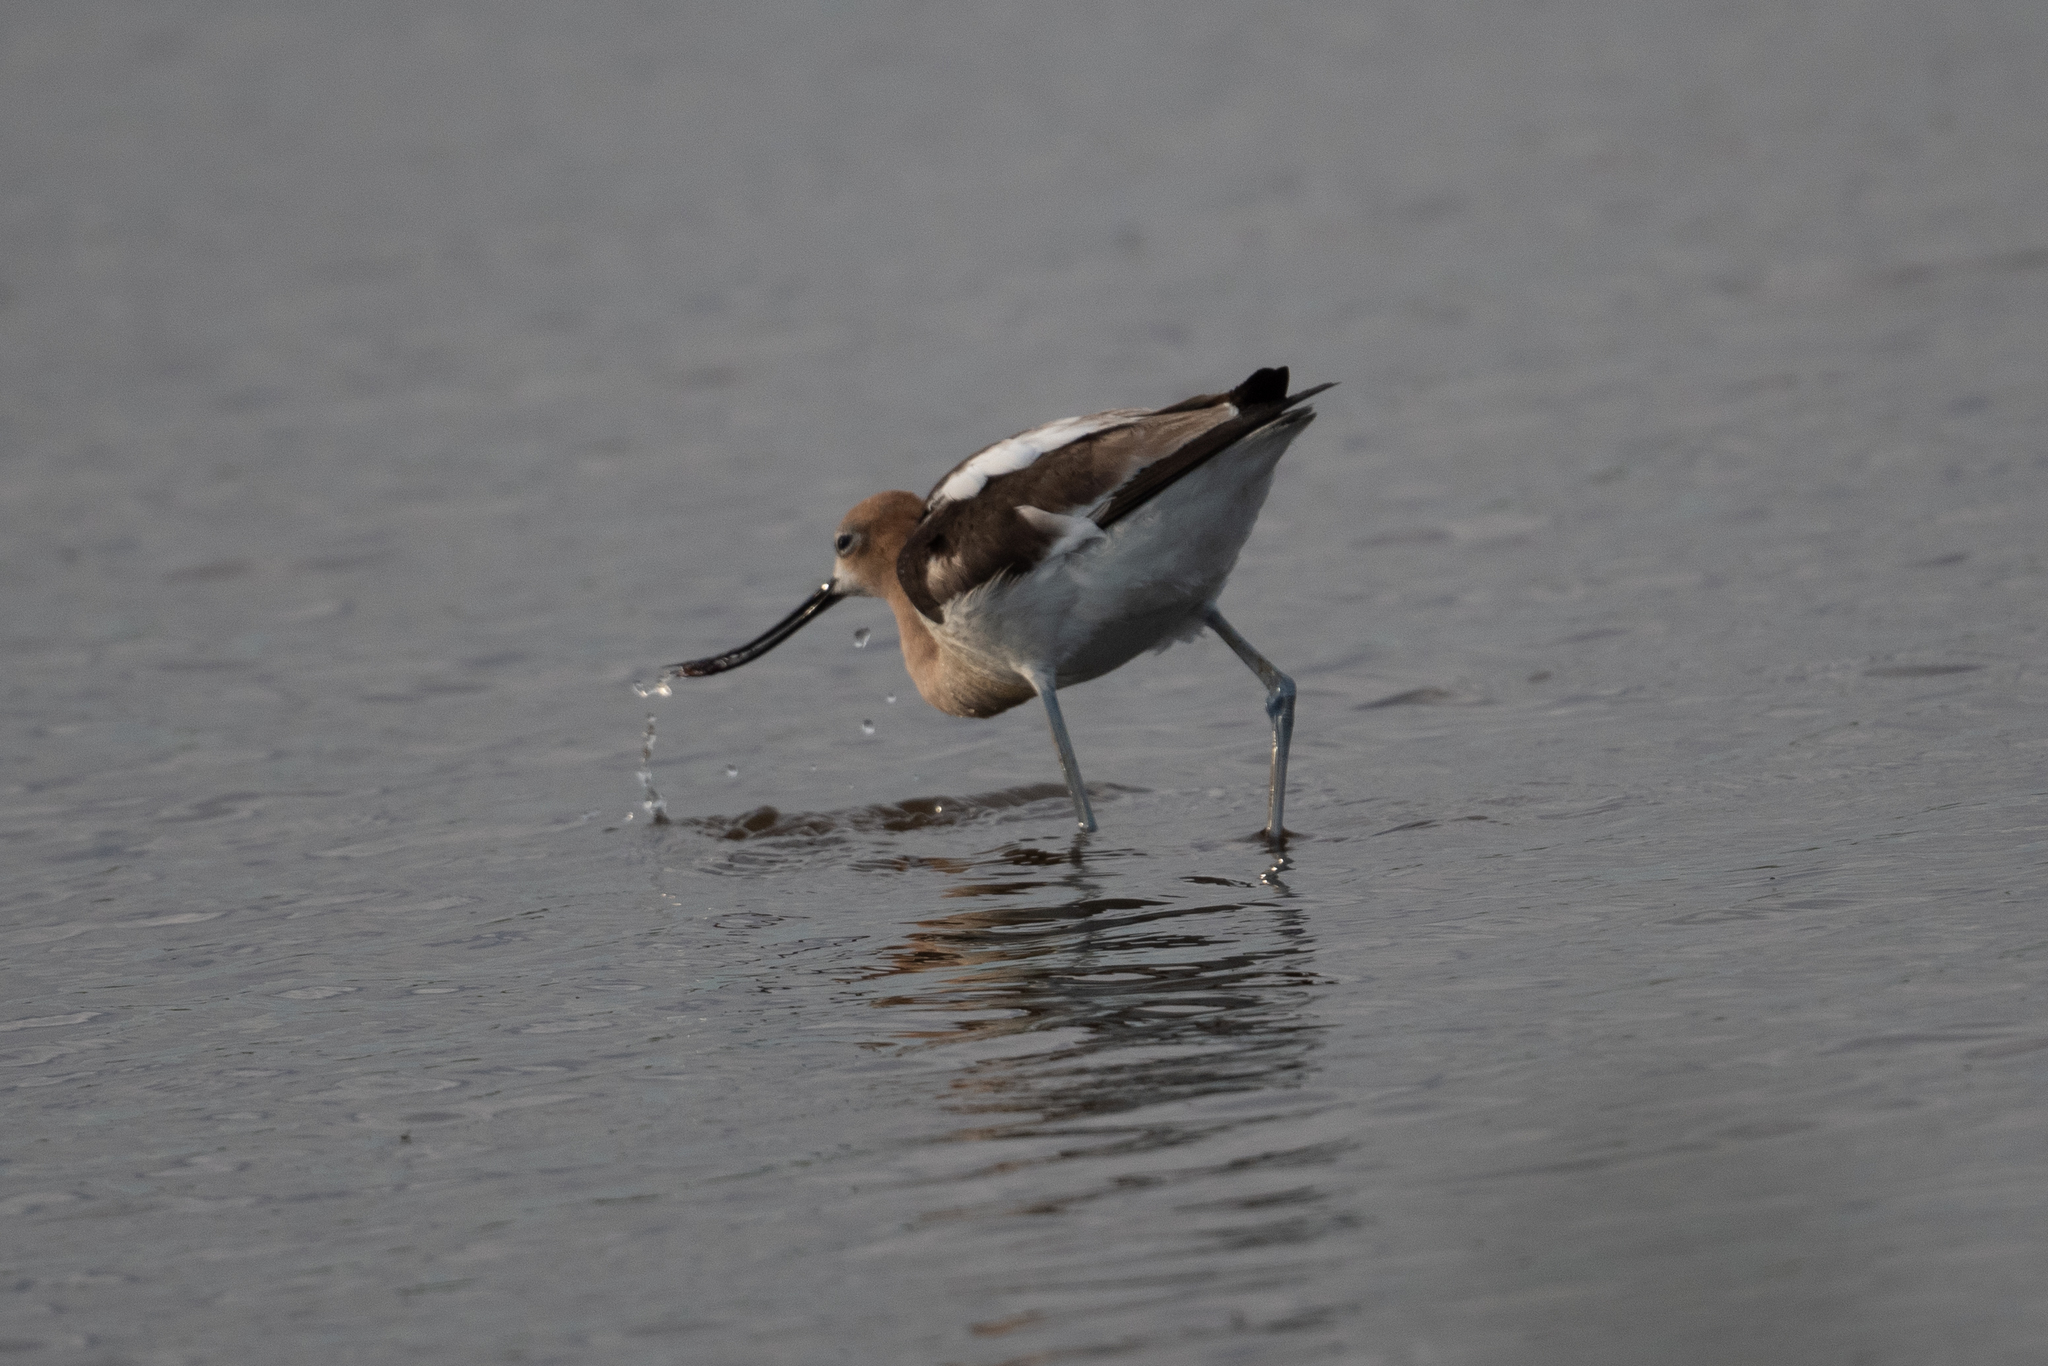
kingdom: Animalia
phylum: Chordata
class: Aves
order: Charadriiformes
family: Recurvirostridae
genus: Recurvirostra
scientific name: Recurvirostra americana
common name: American avocet
